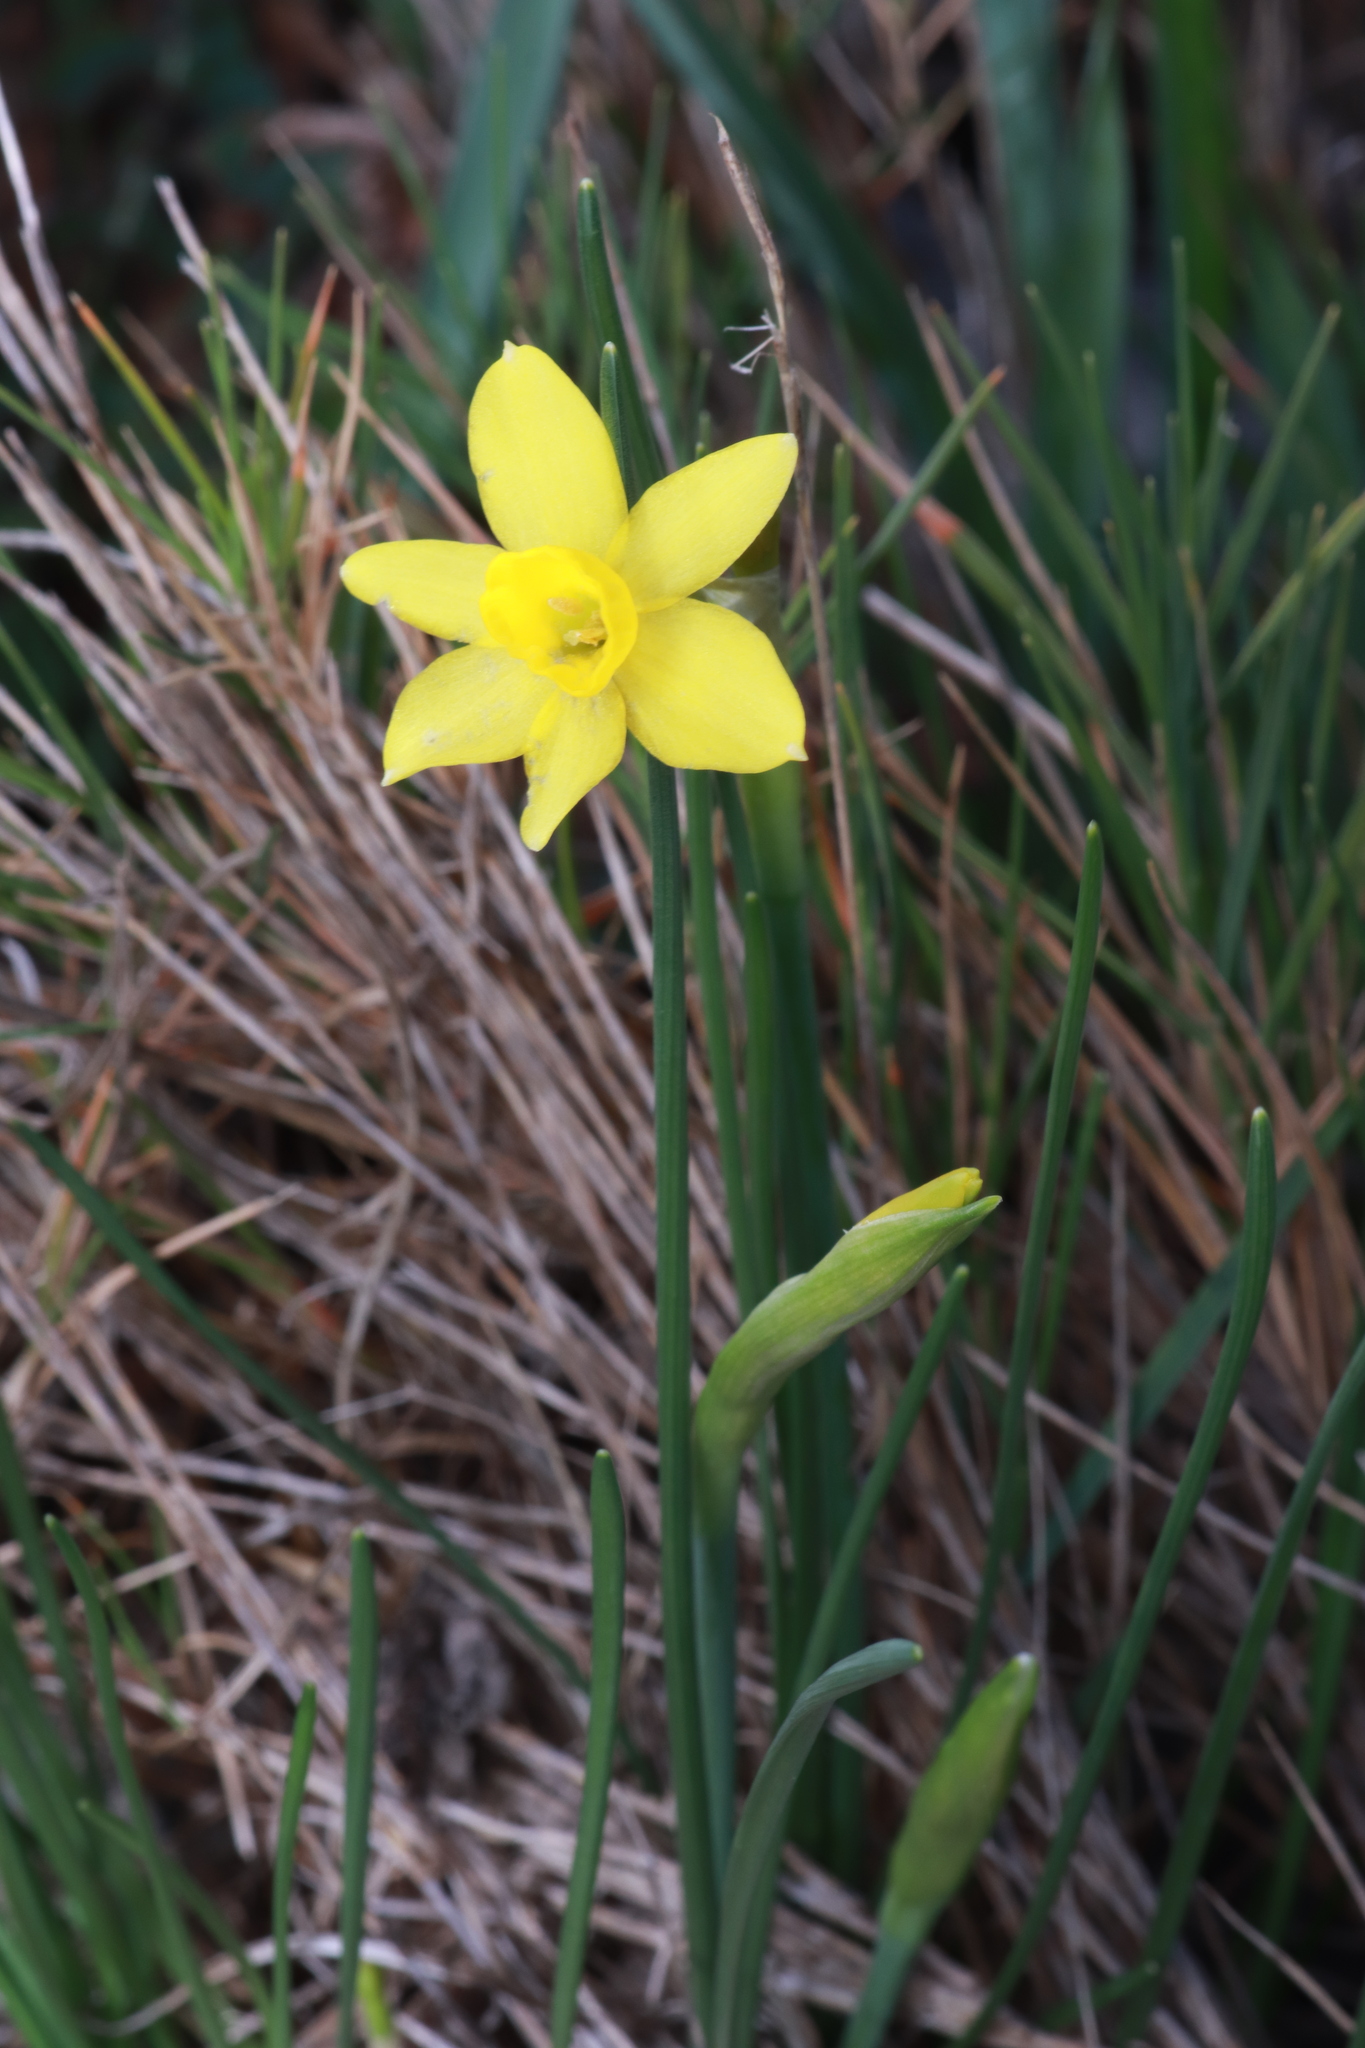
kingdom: Plantae
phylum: Tracheophyta
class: Liliopsida
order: Asparagales
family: Amaryllidaceae
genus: Narcissus
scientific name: Narcissus assoanus
